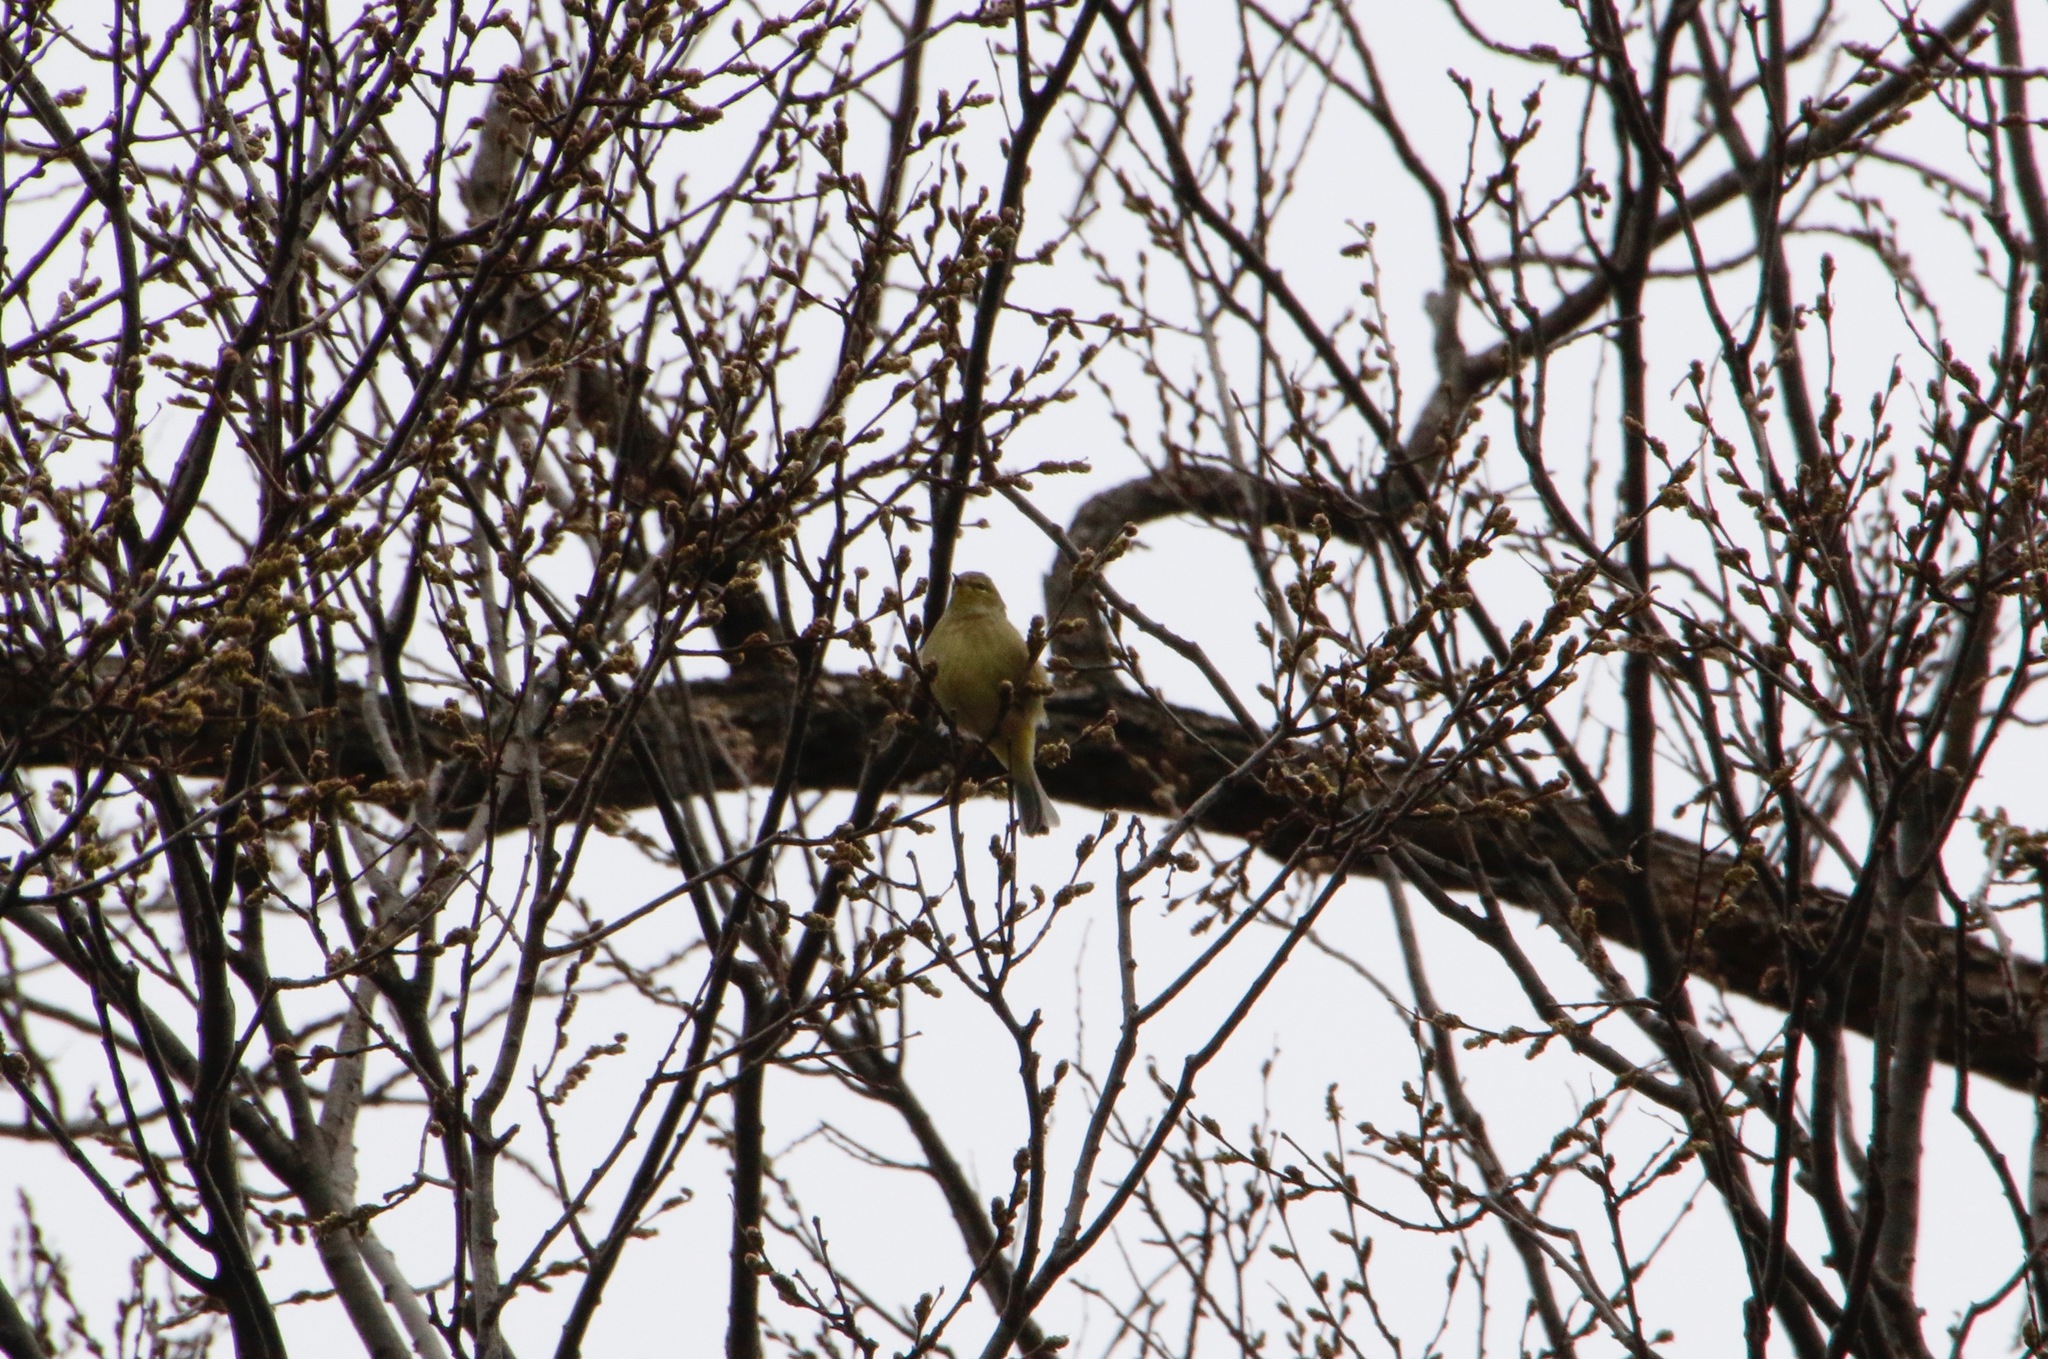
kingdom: Animalia
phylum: Chordata
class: Aves
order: Passeriformes
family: Parulidae
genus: Leiothlypis
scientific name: Leiothlypis celata
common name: Orange-crowned warbler
